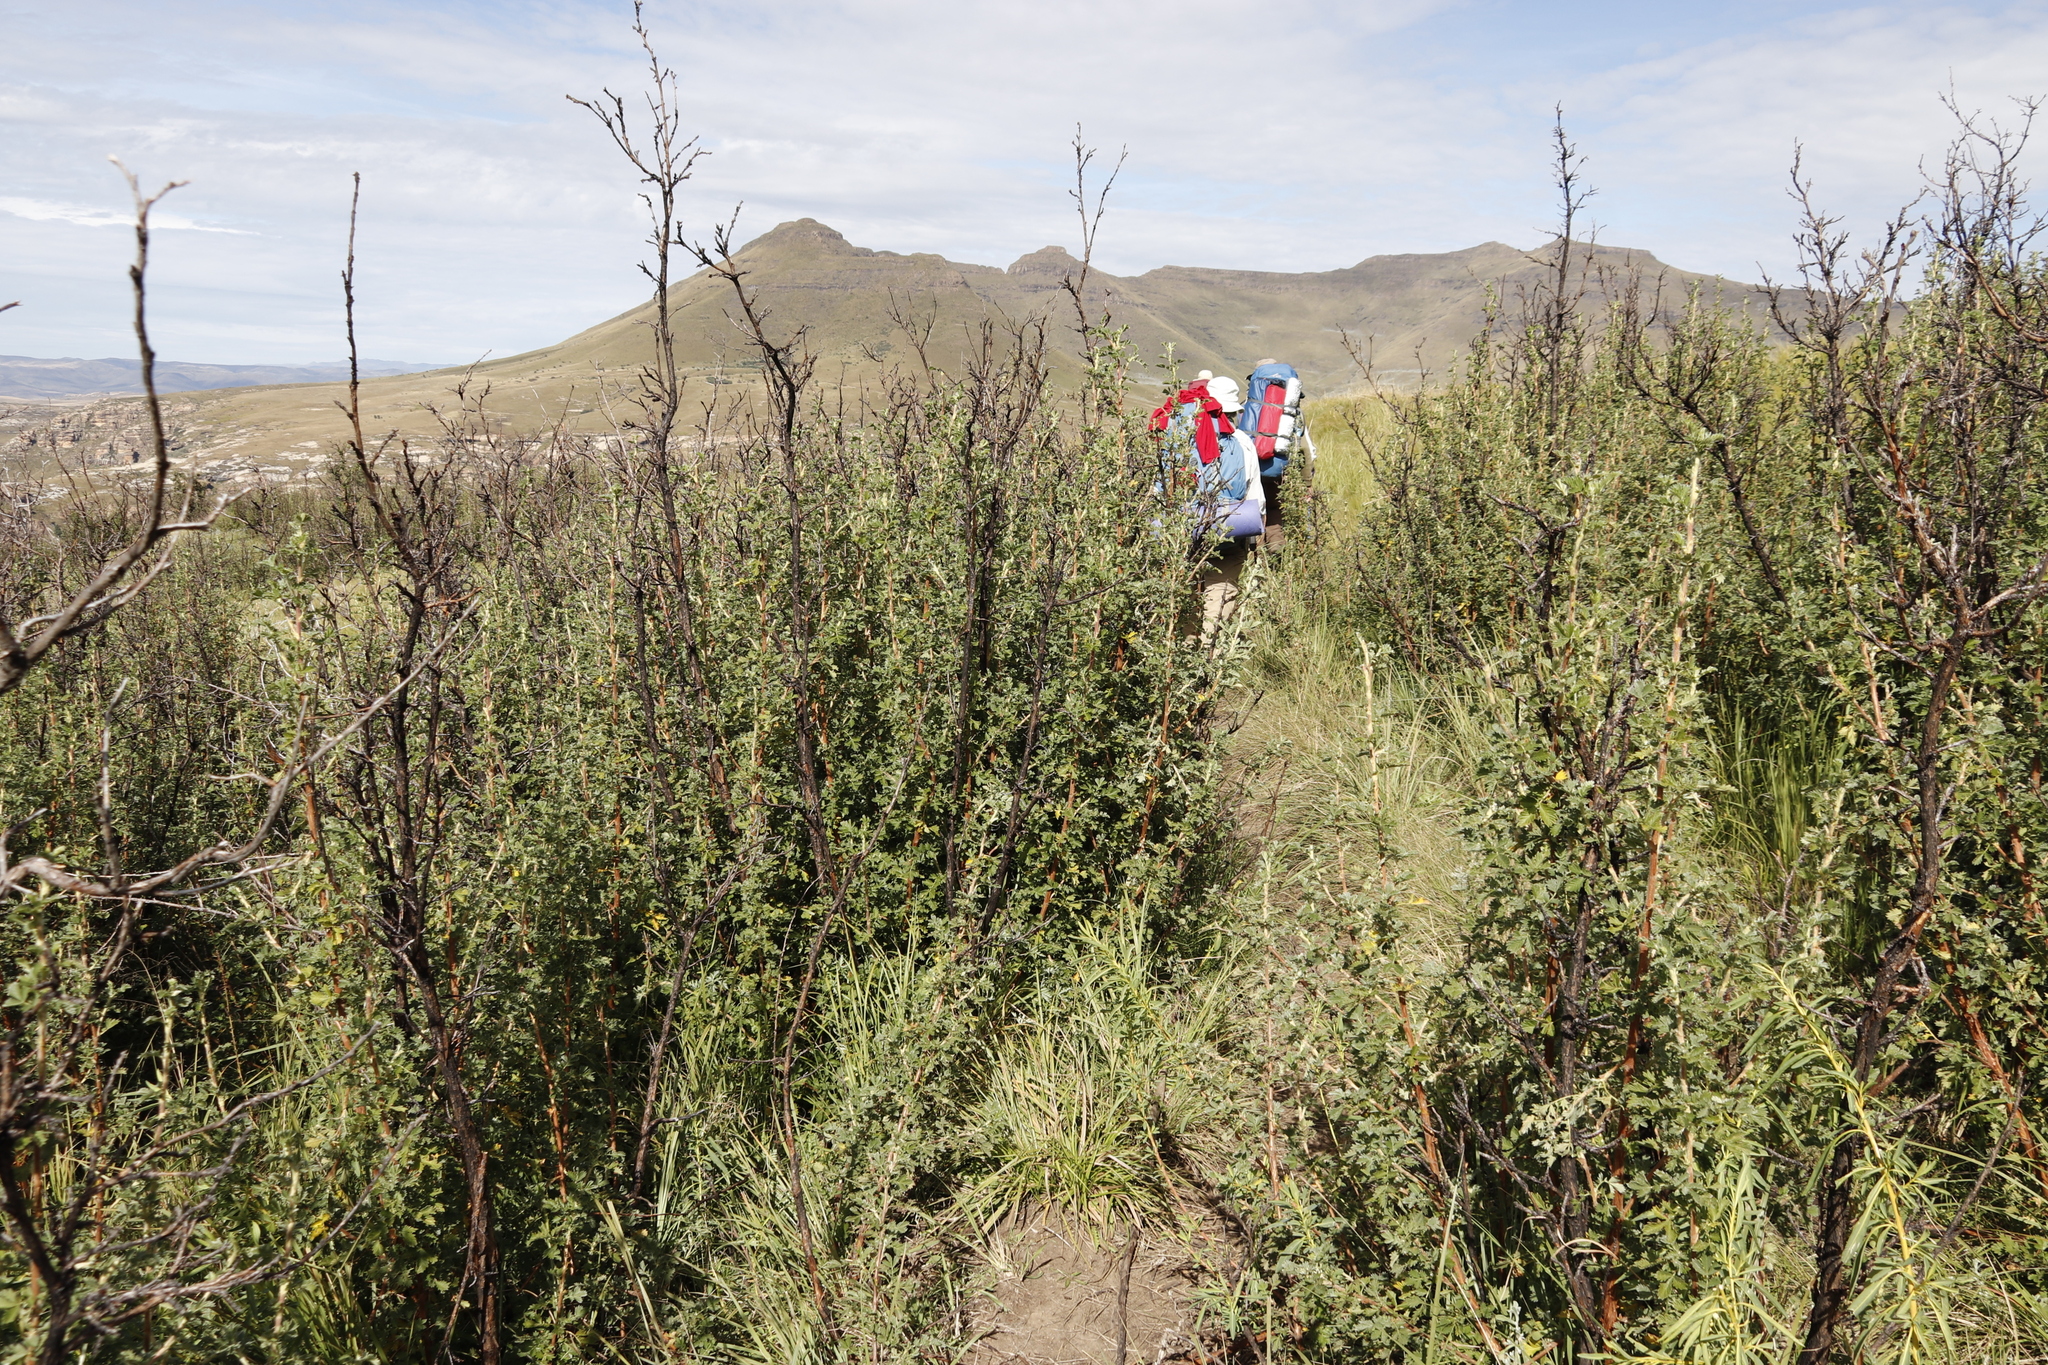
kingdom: Plantae
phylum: Tracheophyta
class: Magnoliopsida
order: Rosales
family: Rosaceae
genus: Leucosidea
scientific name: Leucosidea sericea
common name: Oldwood
